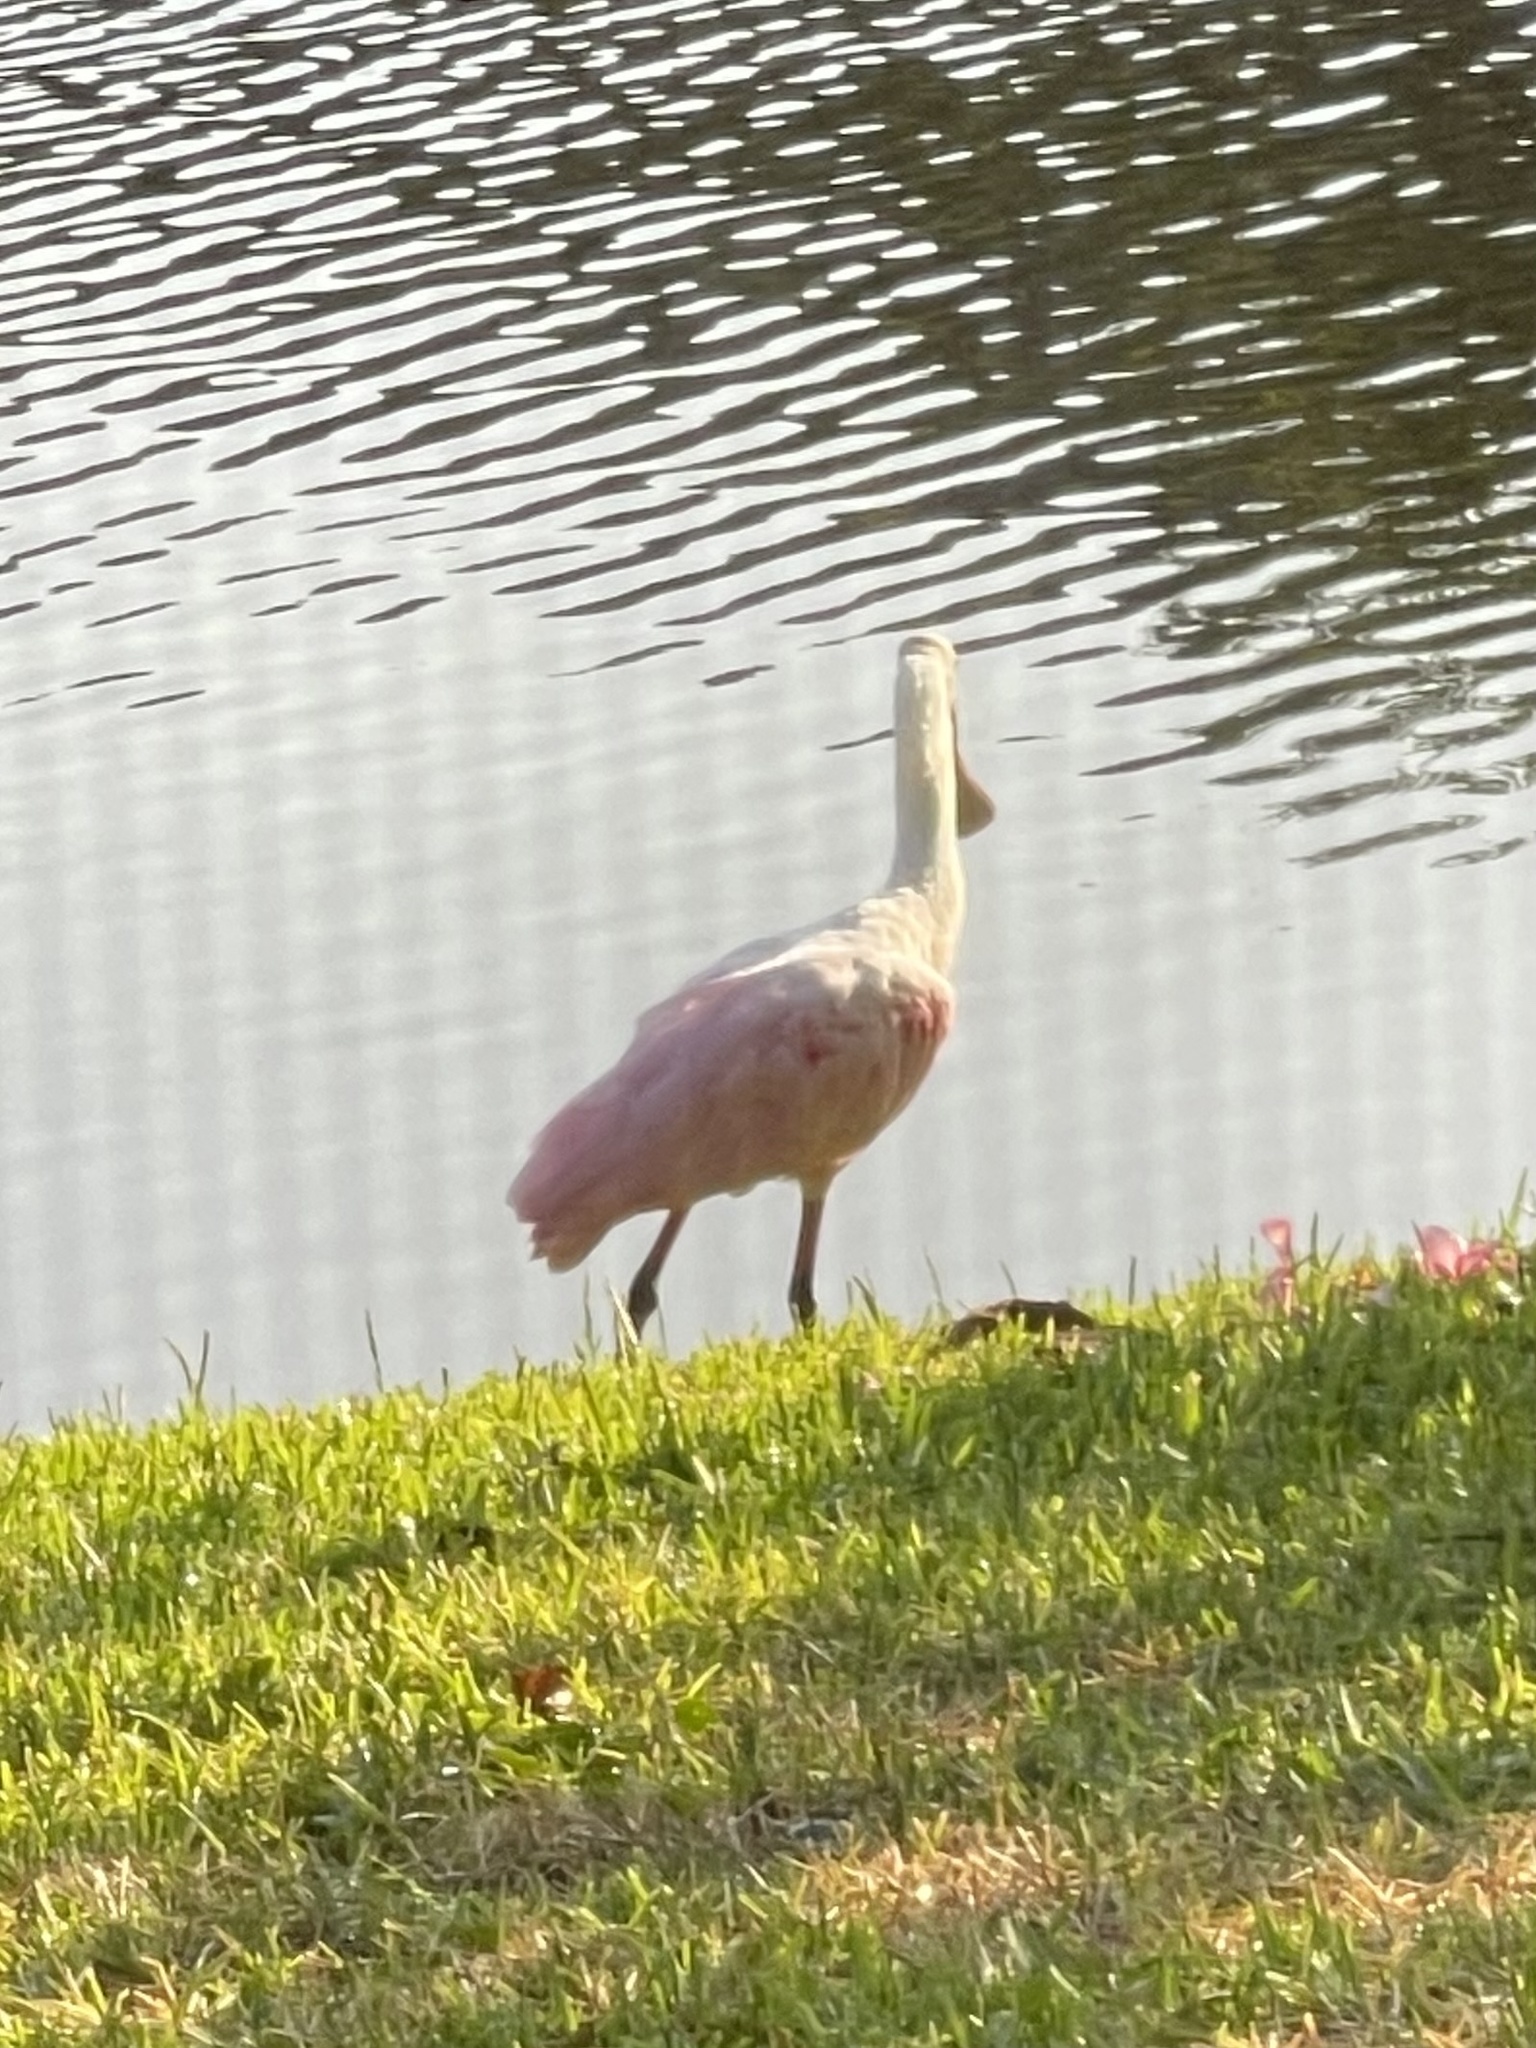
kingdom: Animalia
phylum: Chordata
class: Aves
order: Pelecaniformes
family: Threskiornithidae
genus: Platalea
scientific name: Platalea ajaja
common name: Roseate spoonbill
